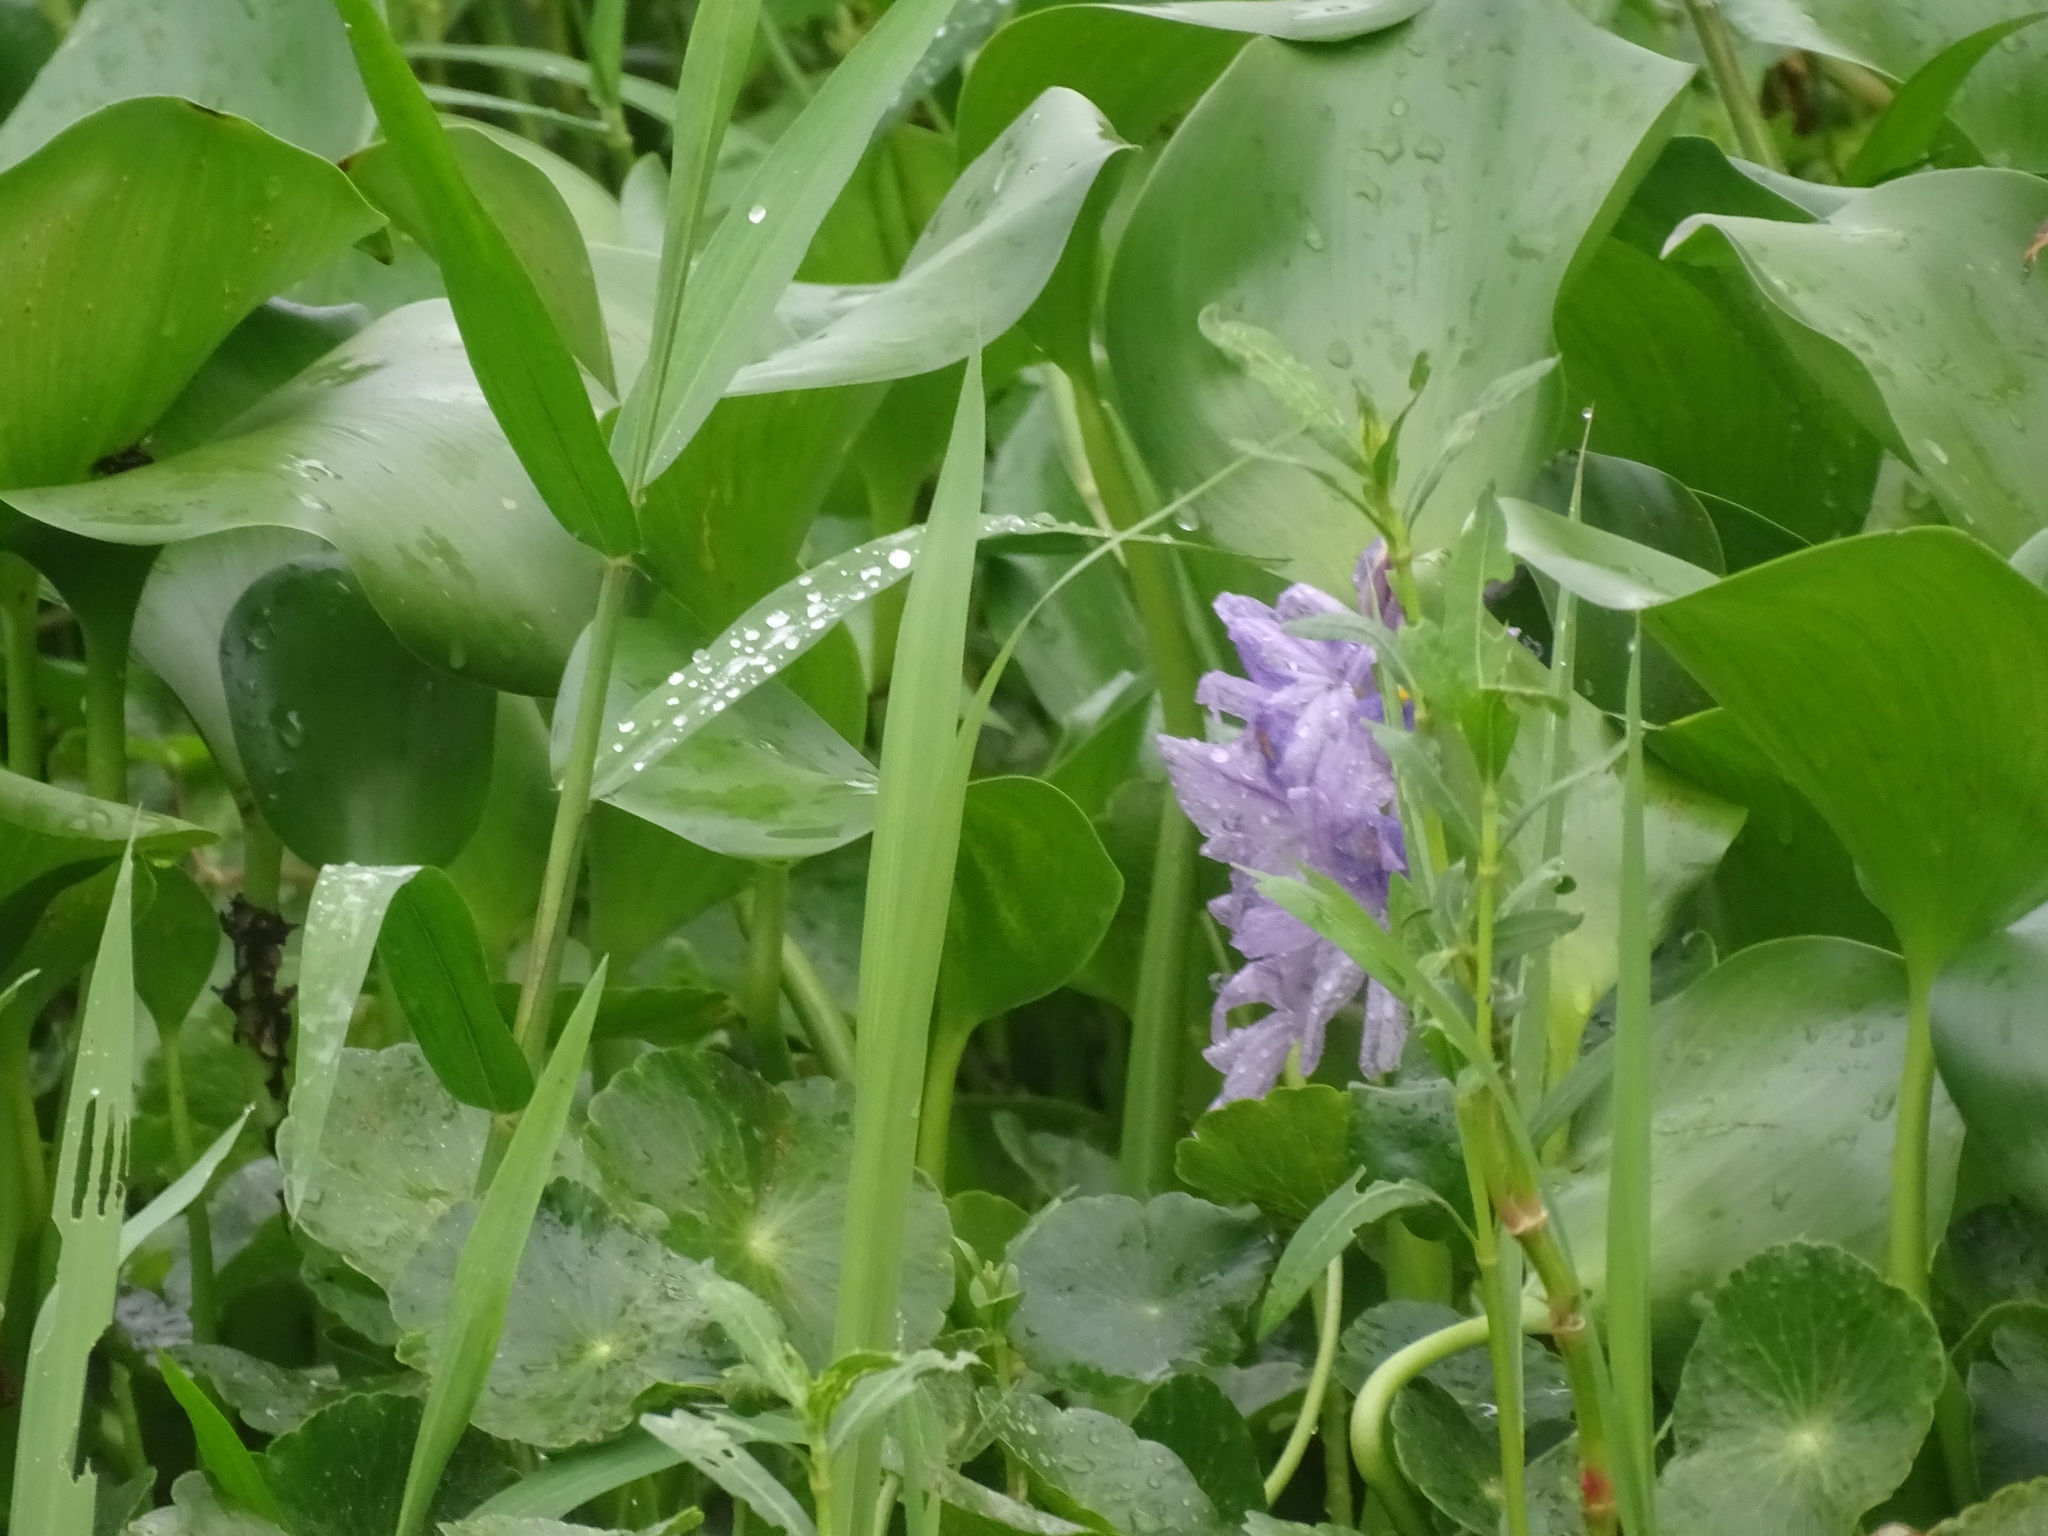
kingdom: Plantae
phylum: Tracheophyta
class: Liliopsida
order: Commelinales
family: Pontederiaceae
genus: Pontederia
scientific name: Pontederia crassipes
